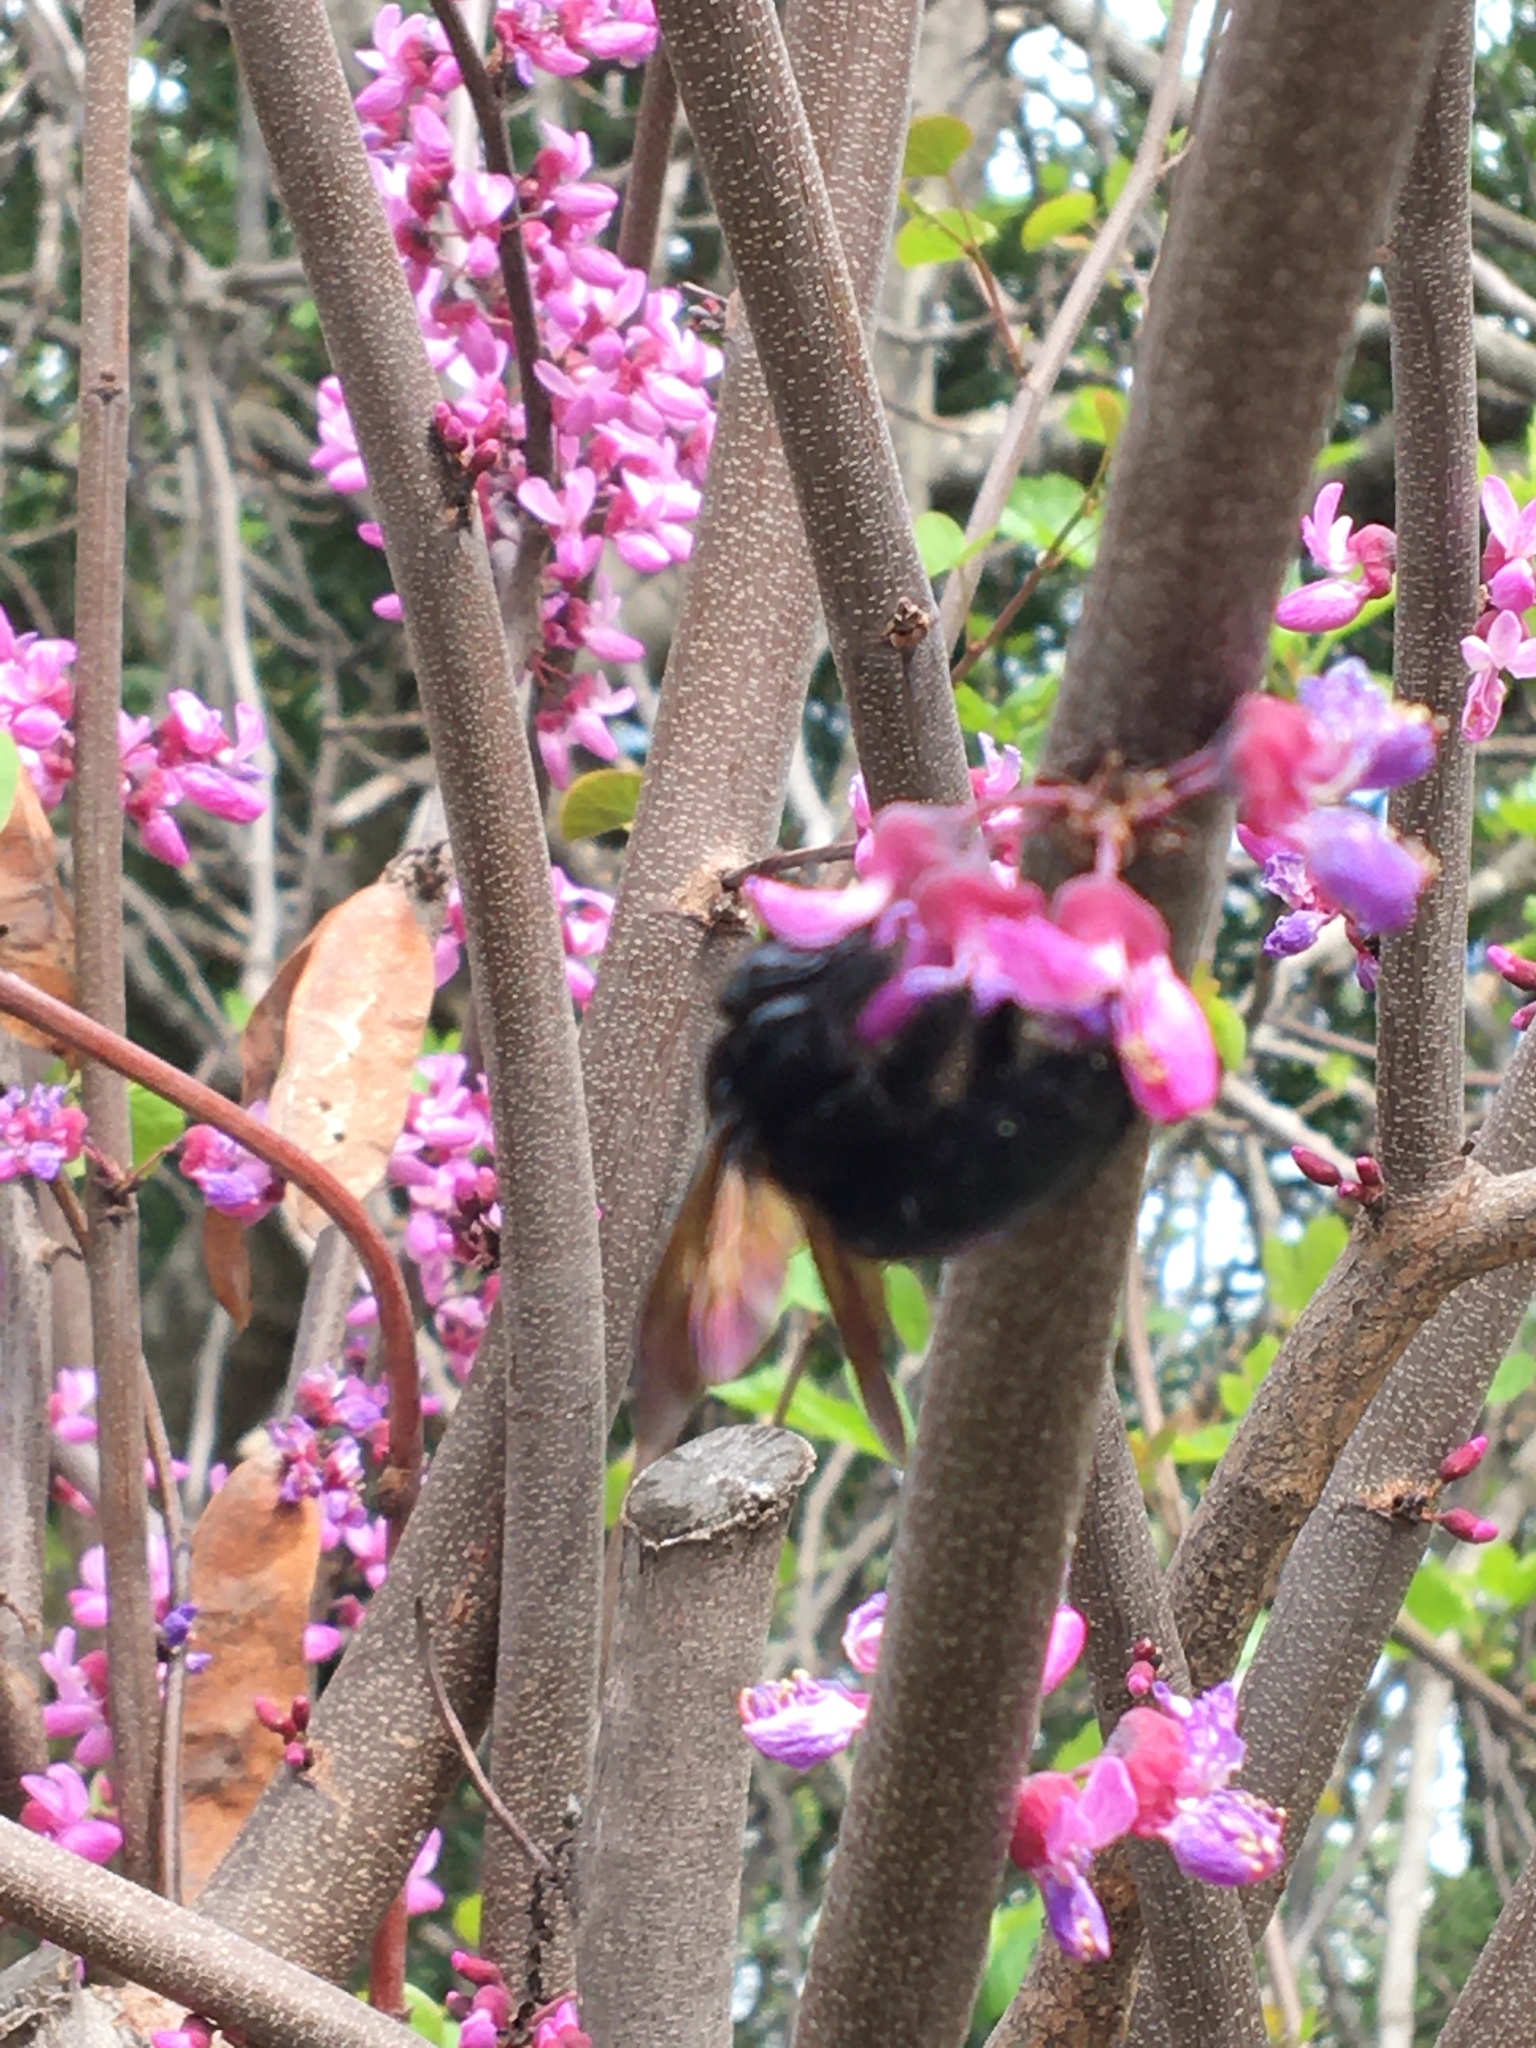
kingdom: Animalia
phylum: Arthropoda
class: Insecta
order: Hymenoptera
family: Apidae
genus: Xylocopa
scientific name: Xylocopa sonorina
